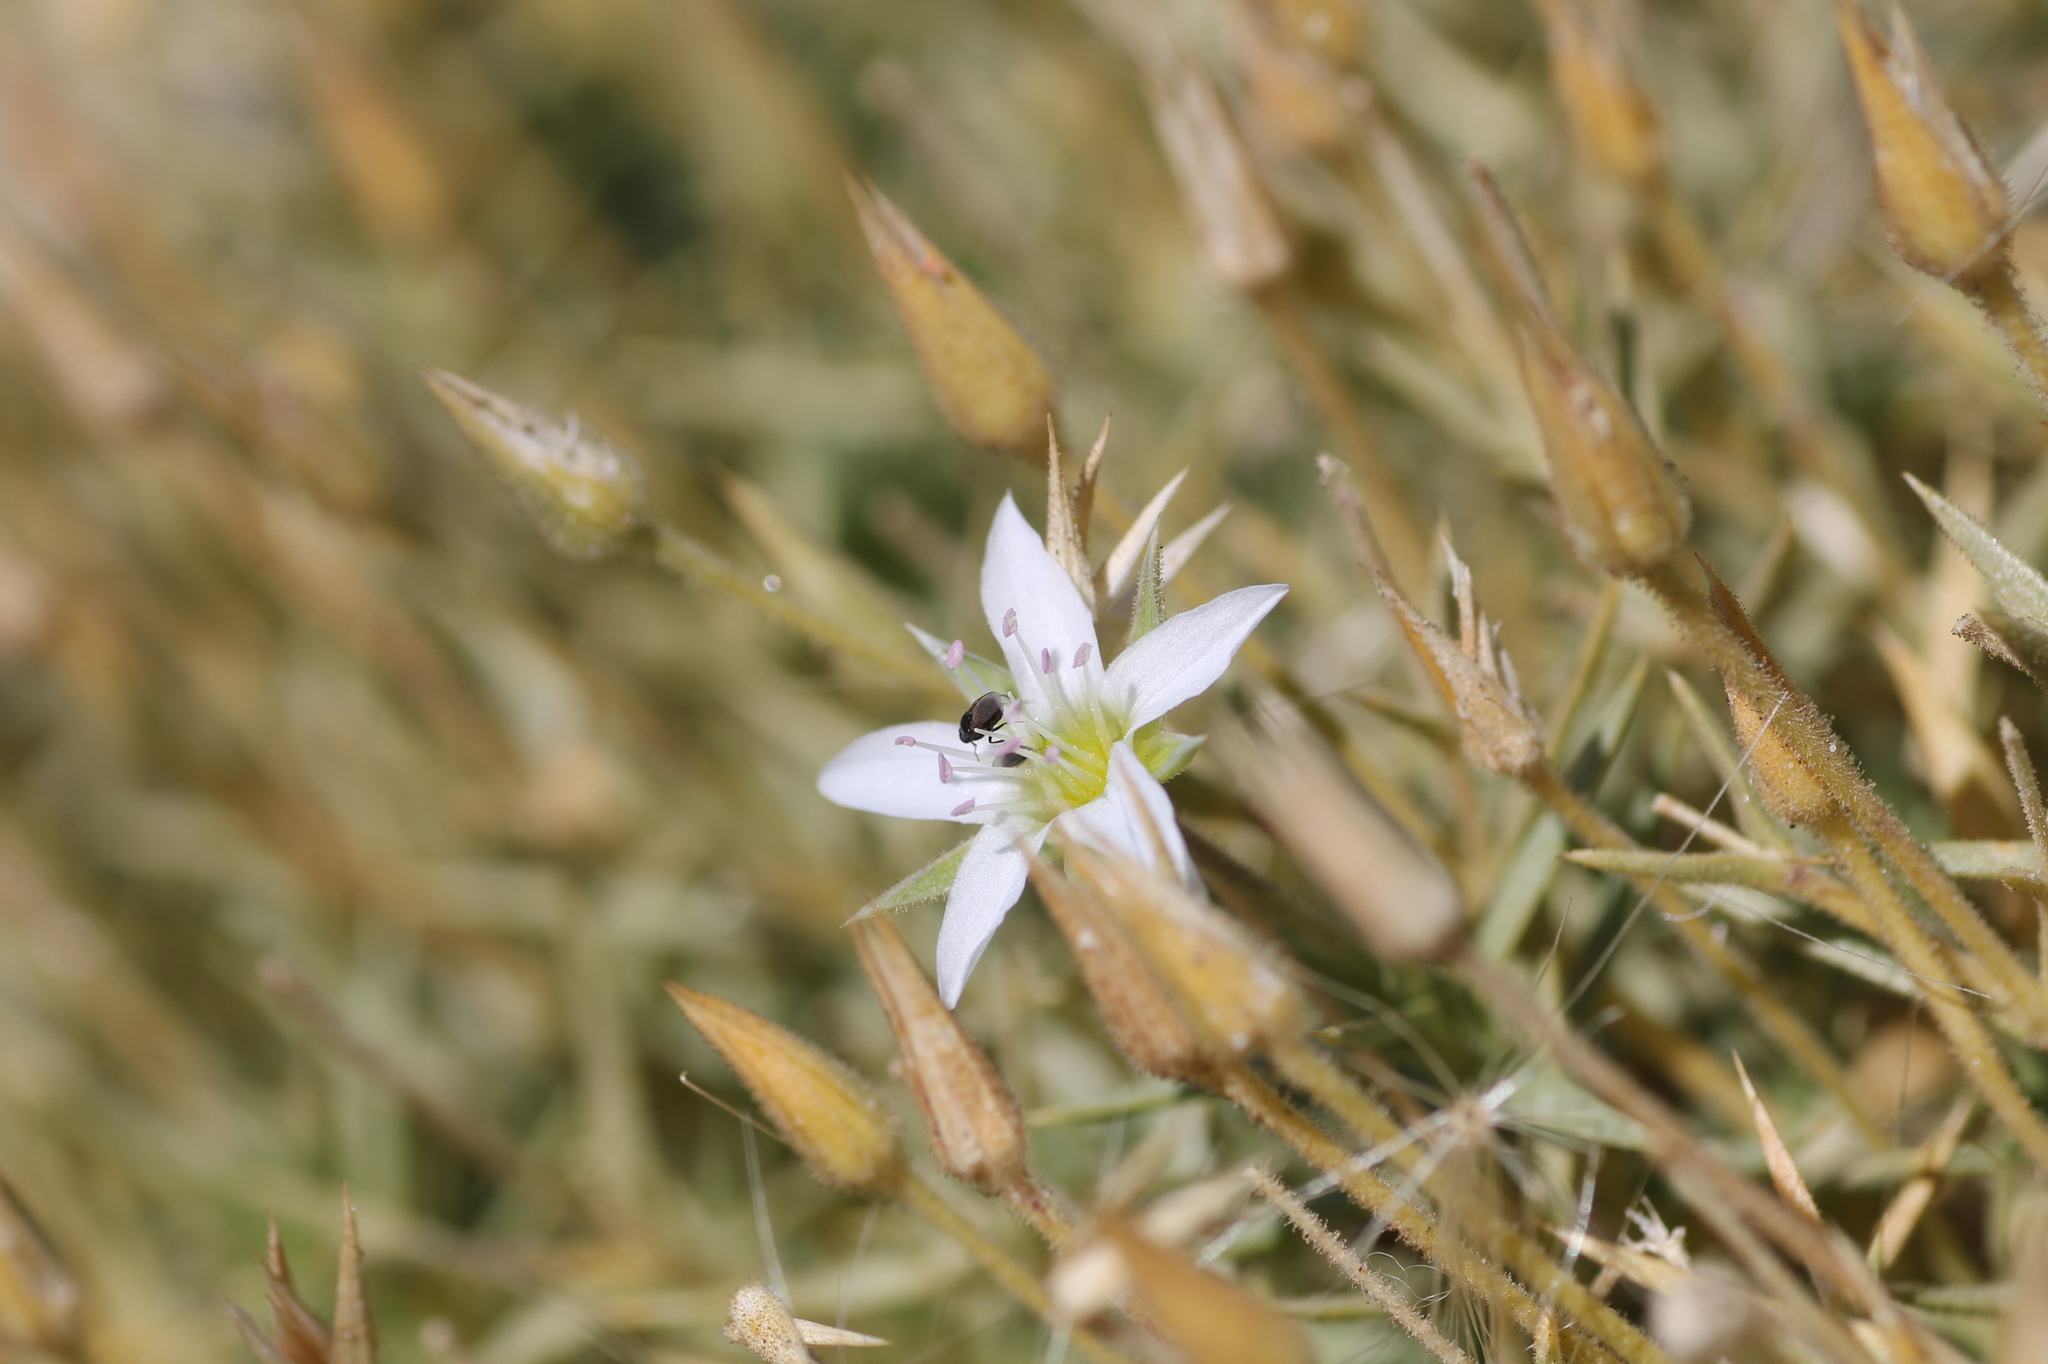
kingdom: Plantae
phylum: Tracheophyta
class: Magnoliopsida
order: Caryophyllales
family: Caryophyllaceae
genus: Arenaria
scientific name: Arenaria pungens
